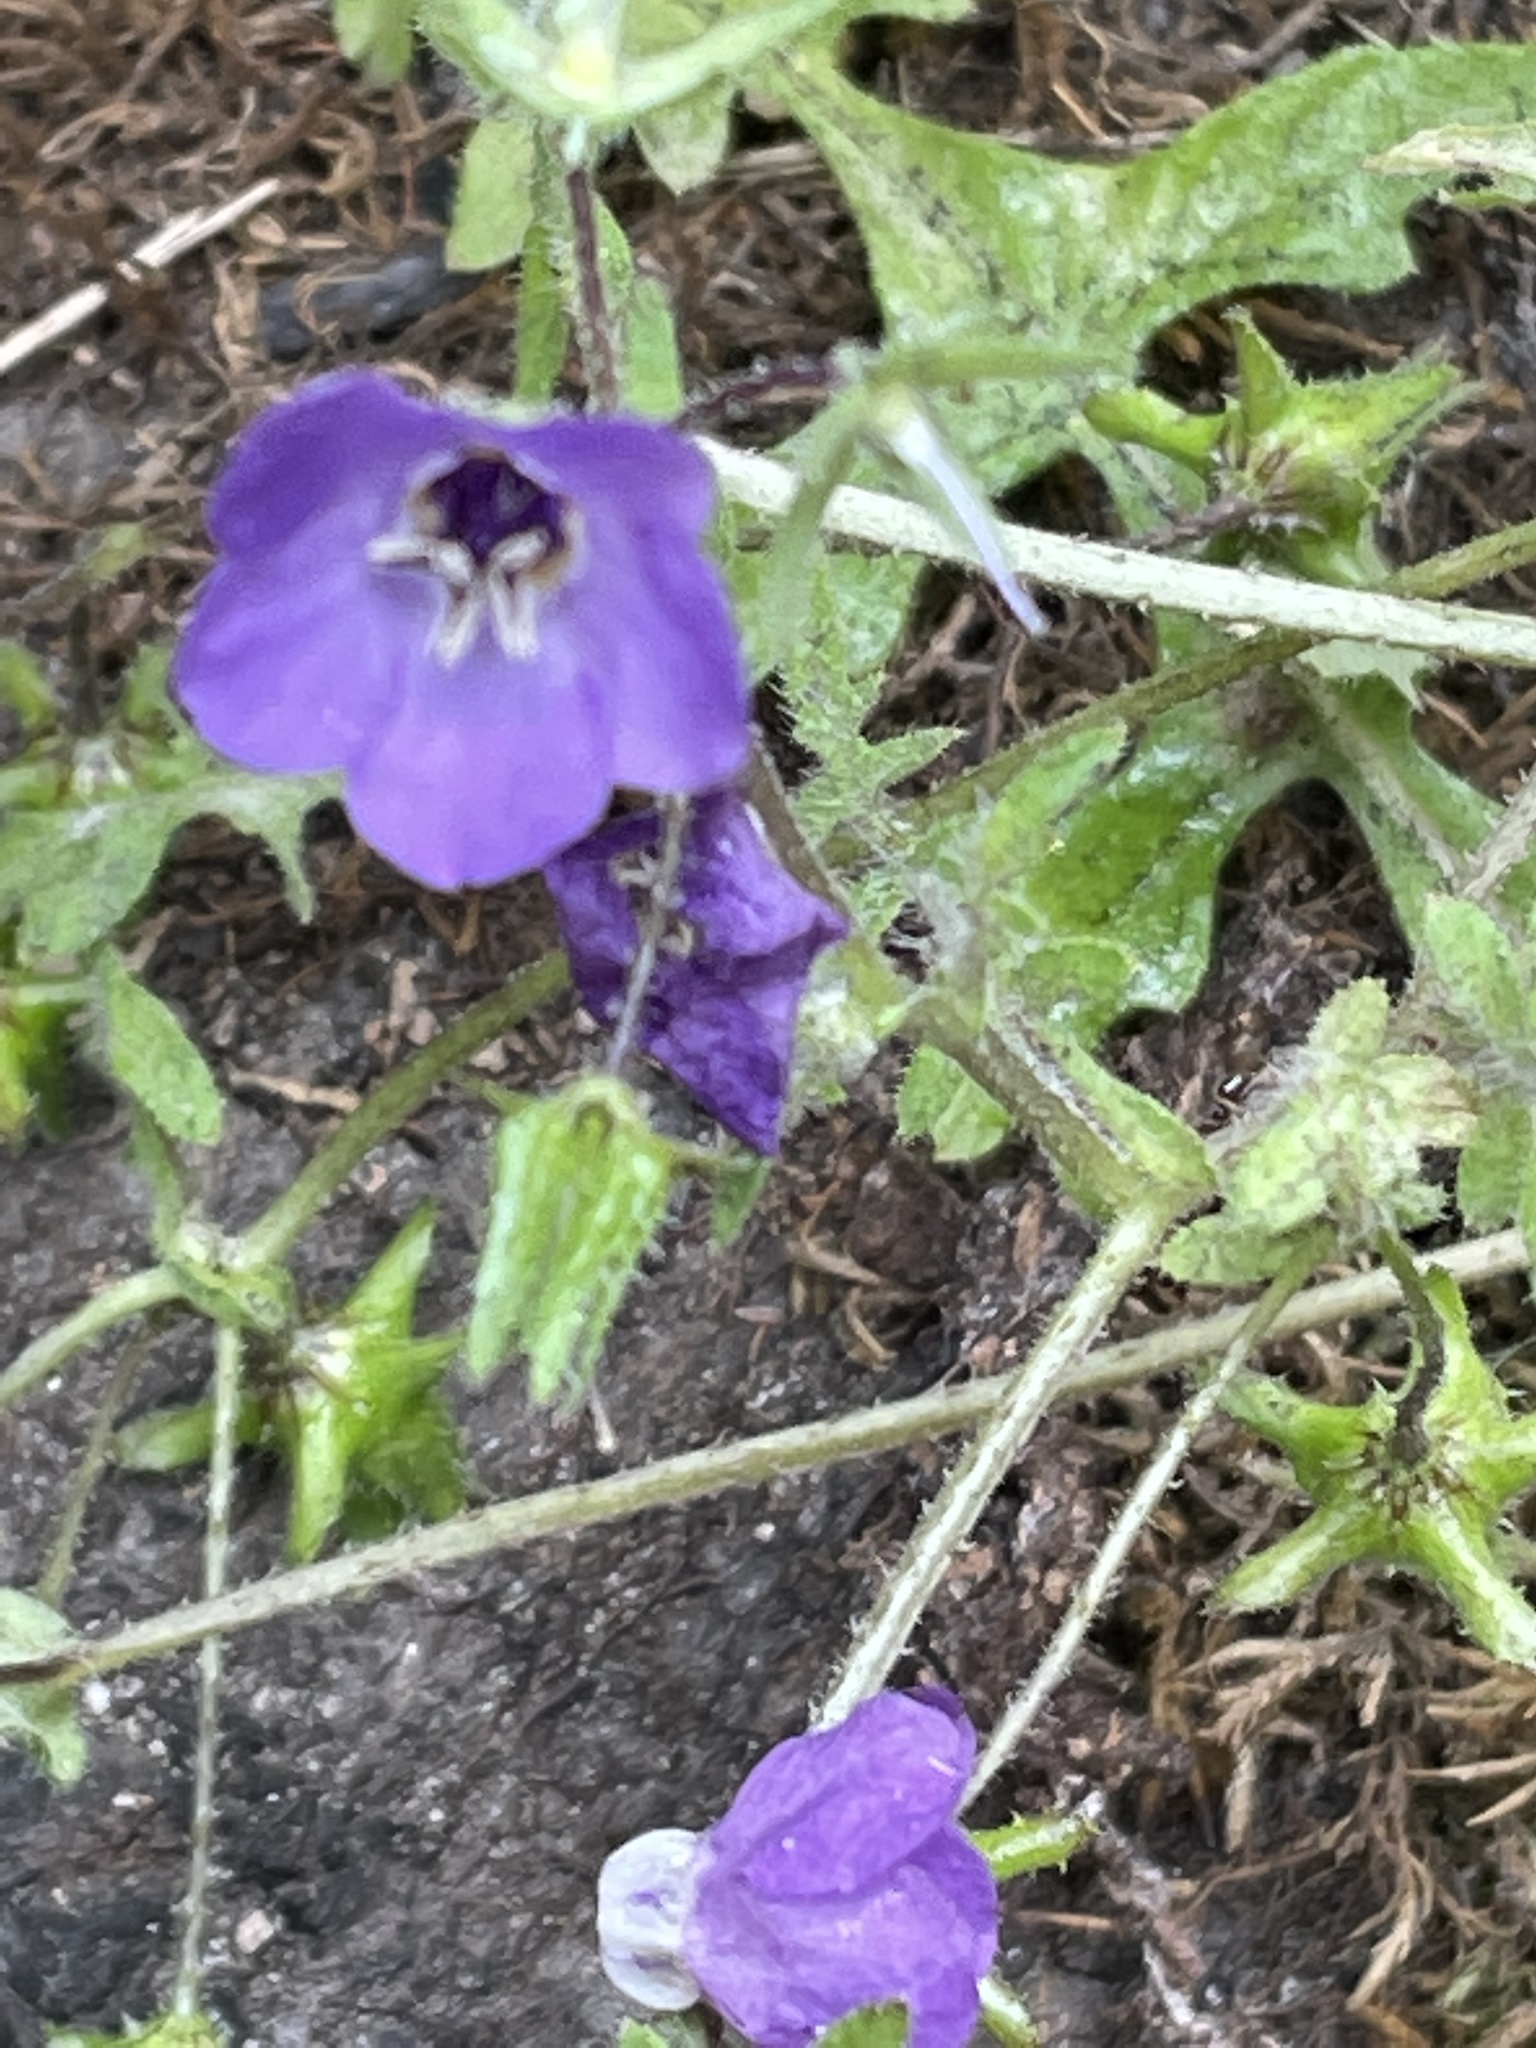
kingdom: Plantae
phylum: Tracheophyta
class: Magnoliopsida
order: Boraginales
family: Hydrophyllaceae
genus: Pholistoma
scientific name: Pholistoma auritum
